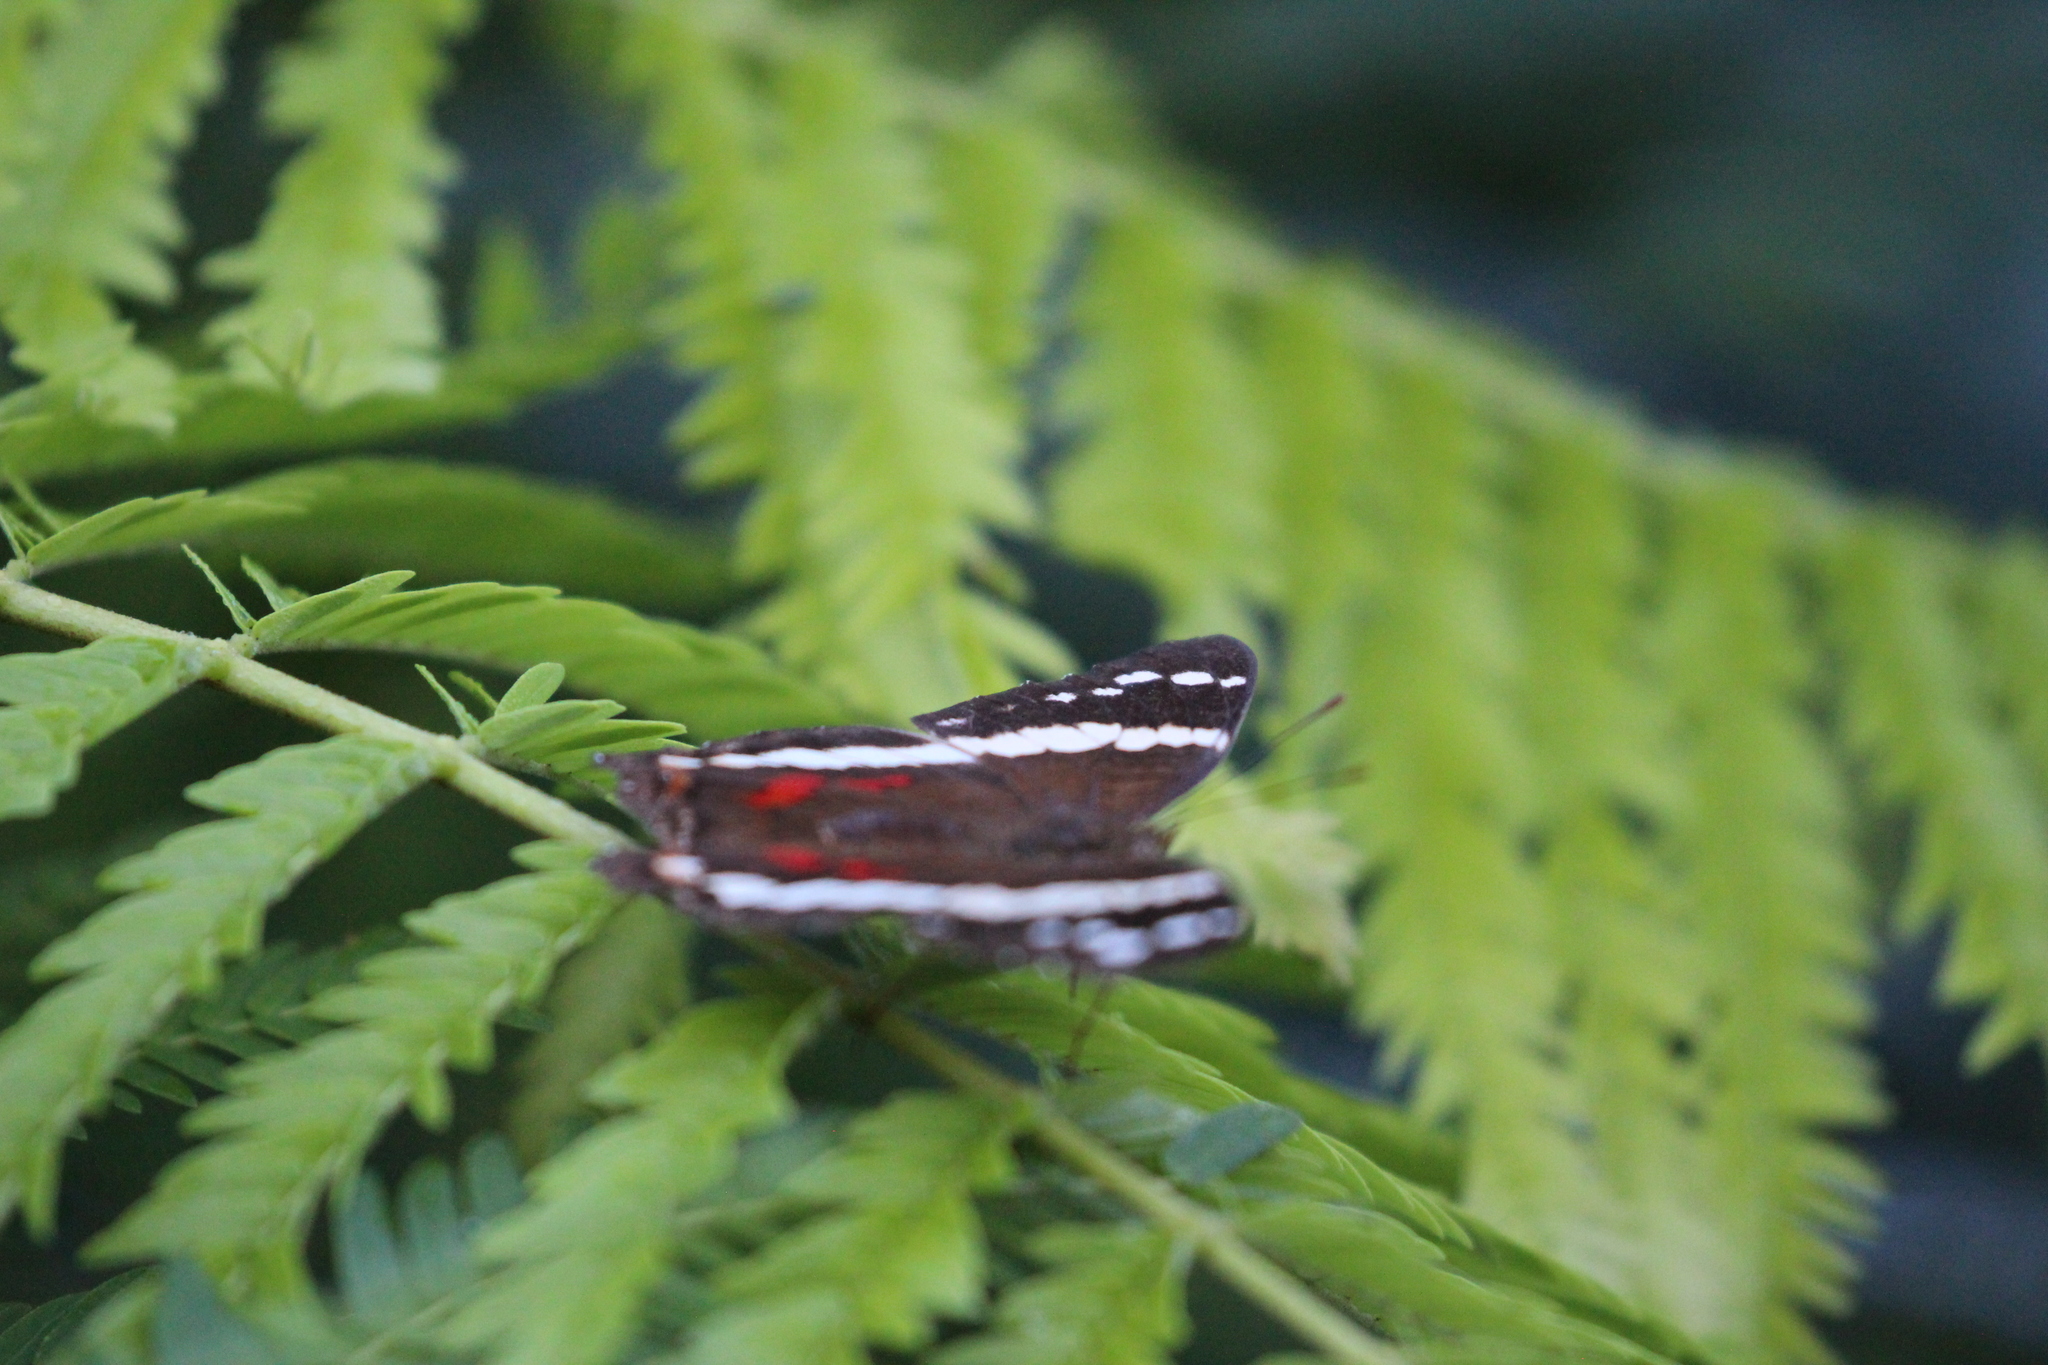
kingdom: Animalia
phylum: Arthropoda
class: Insecta
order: Lepidoptera
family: Nymphalidae
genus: Anartia
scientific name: Anartia fatima
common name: Banded peacock
